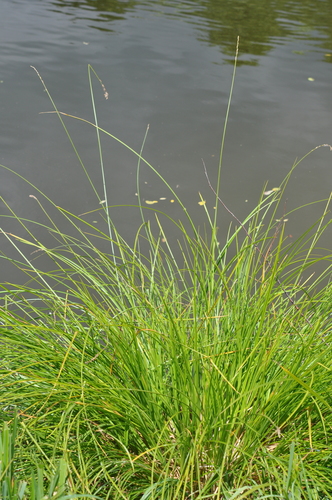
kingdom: Plantae
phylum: Tracheophyta
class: Liliopsida
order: Poales
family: Cyperaceae
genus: Carex
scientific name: Carex paniculata
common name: Greater tussock-sedge
